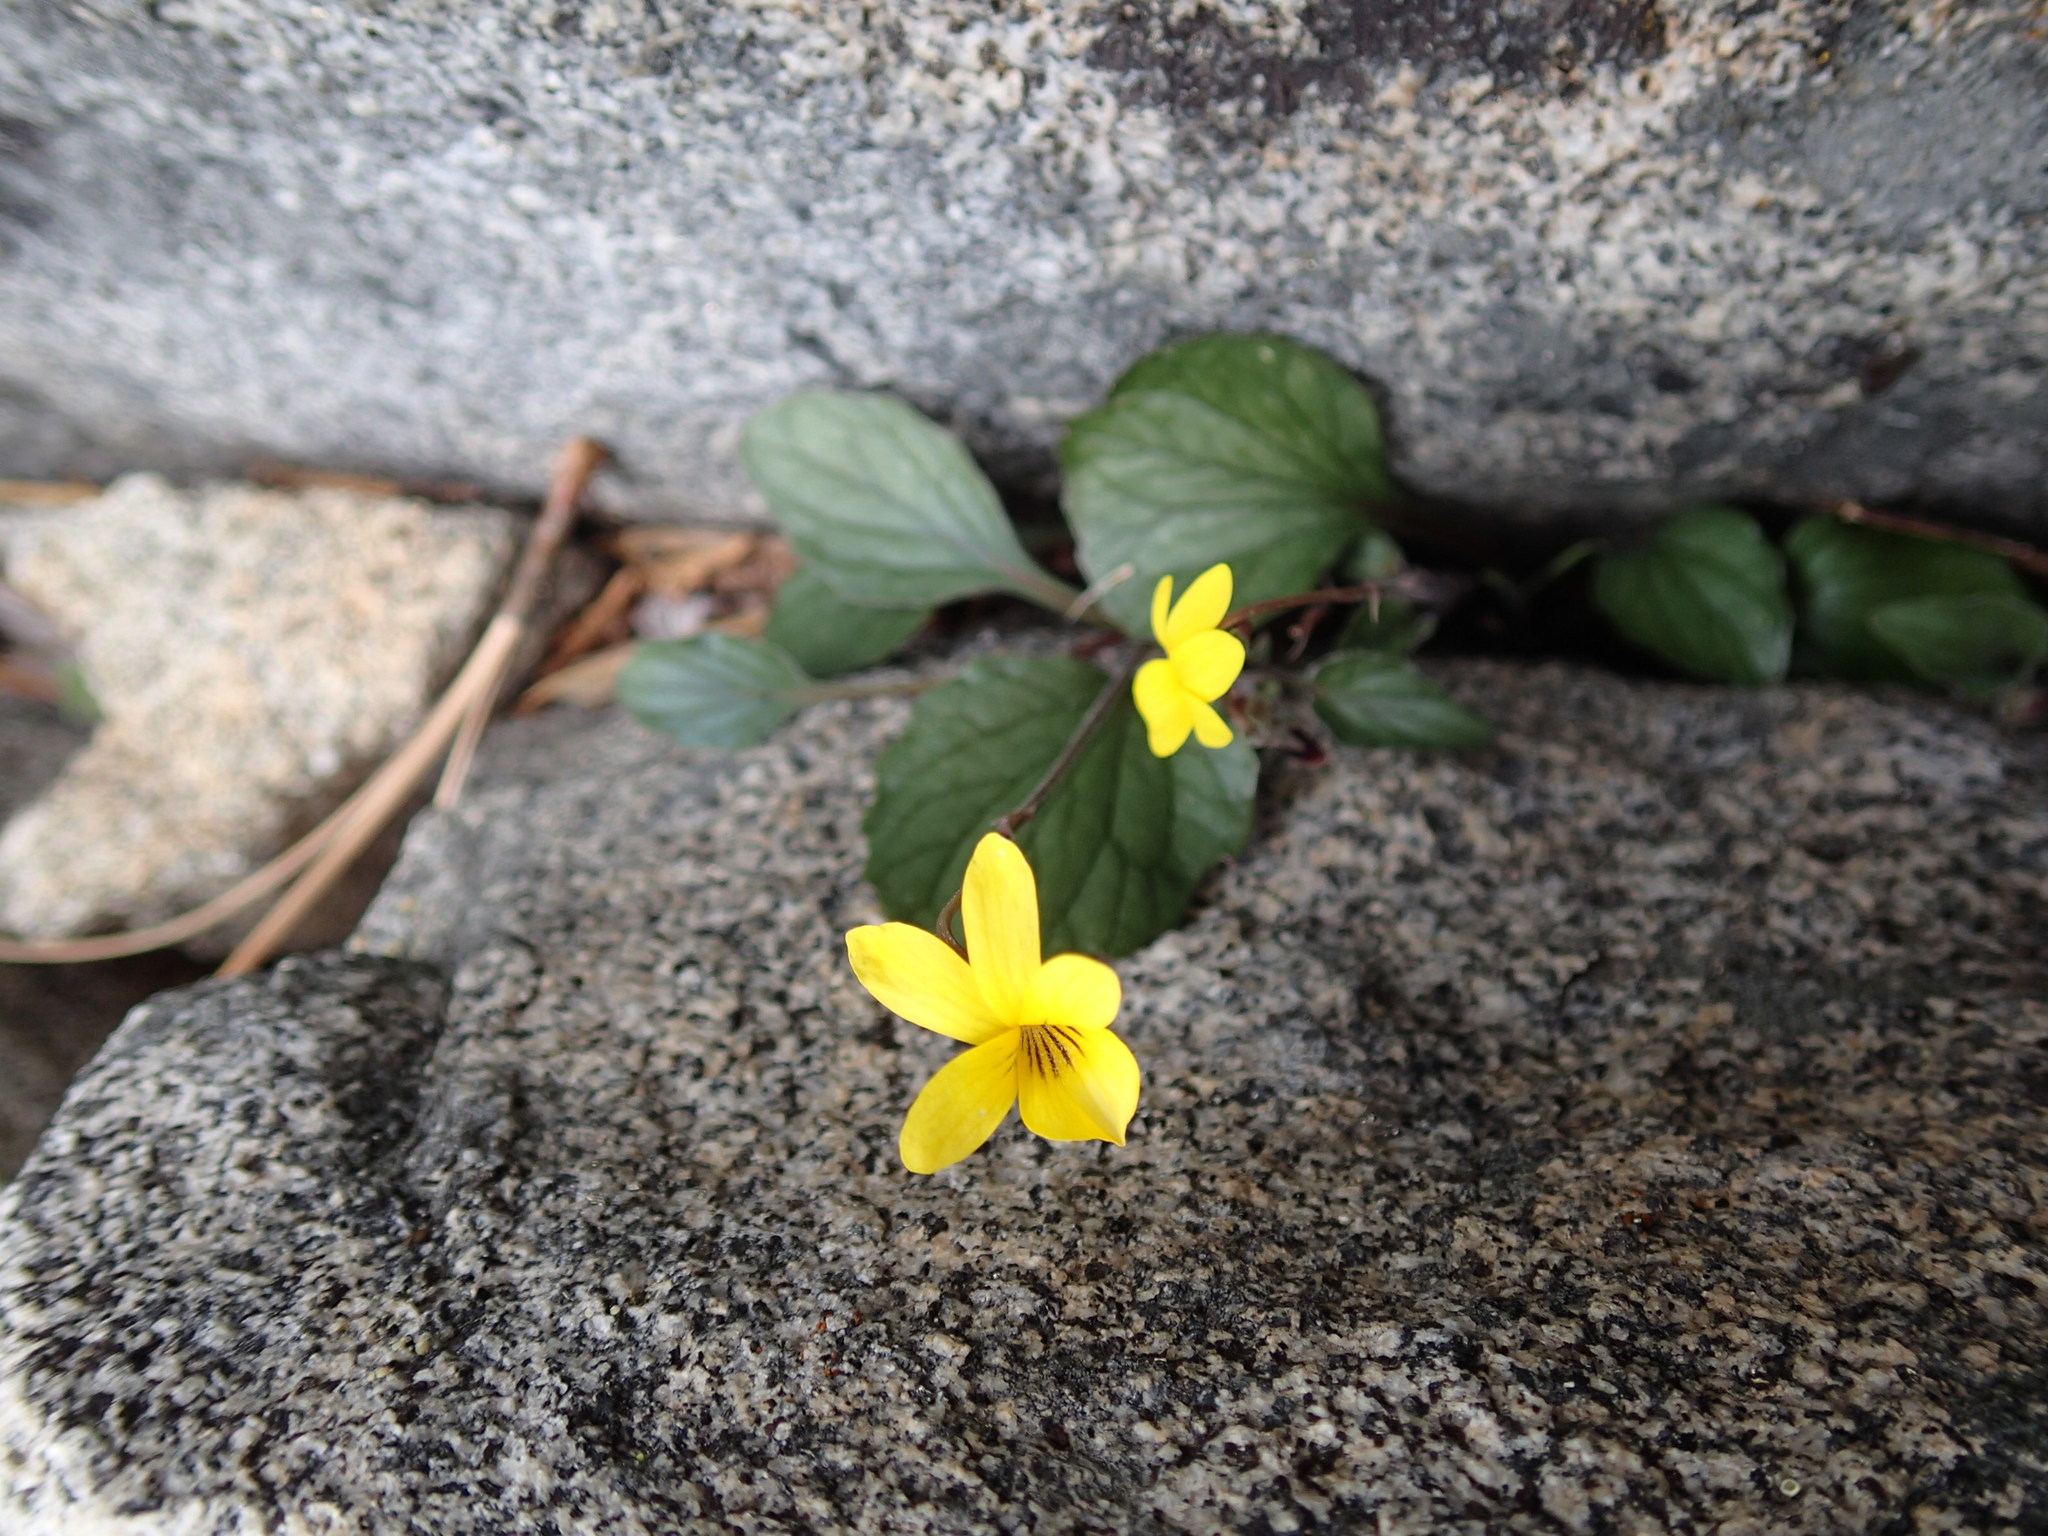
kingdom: Plantae
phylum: Tracheophyta
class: Magnoliopsida
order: Malpighiales
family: Violaceae
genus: Viola
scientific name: Viola purpurea
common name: Pine violet
